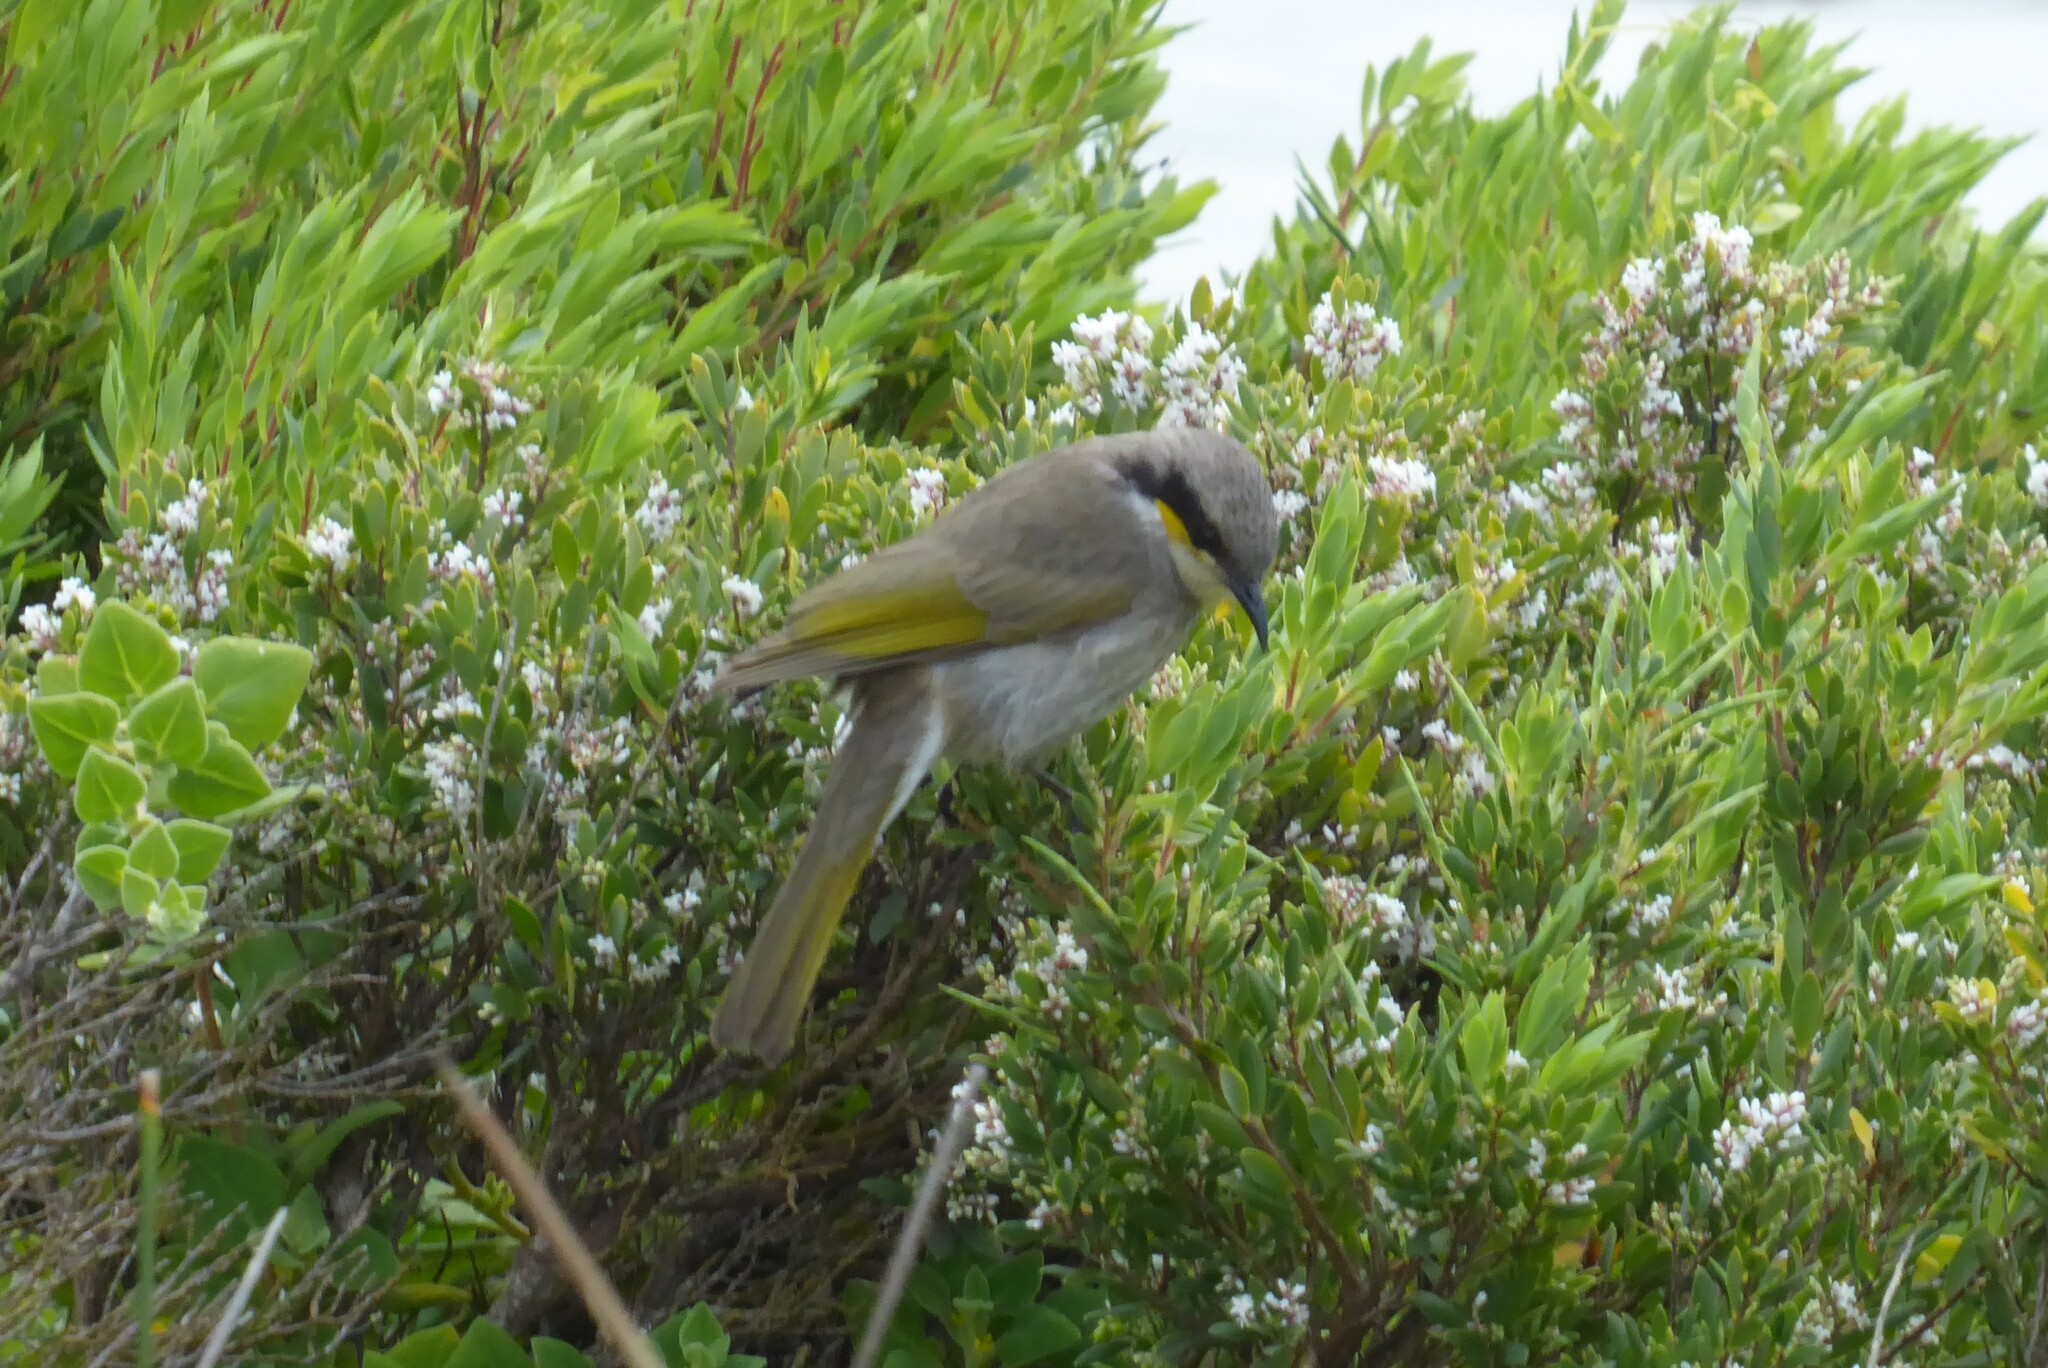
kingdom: Animalia
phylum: Chordata
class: Aves
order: Passeriformes
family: Meliphagidae
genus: Gavicalis
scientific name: Gavicalis virescens
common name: Singing honeyeater
